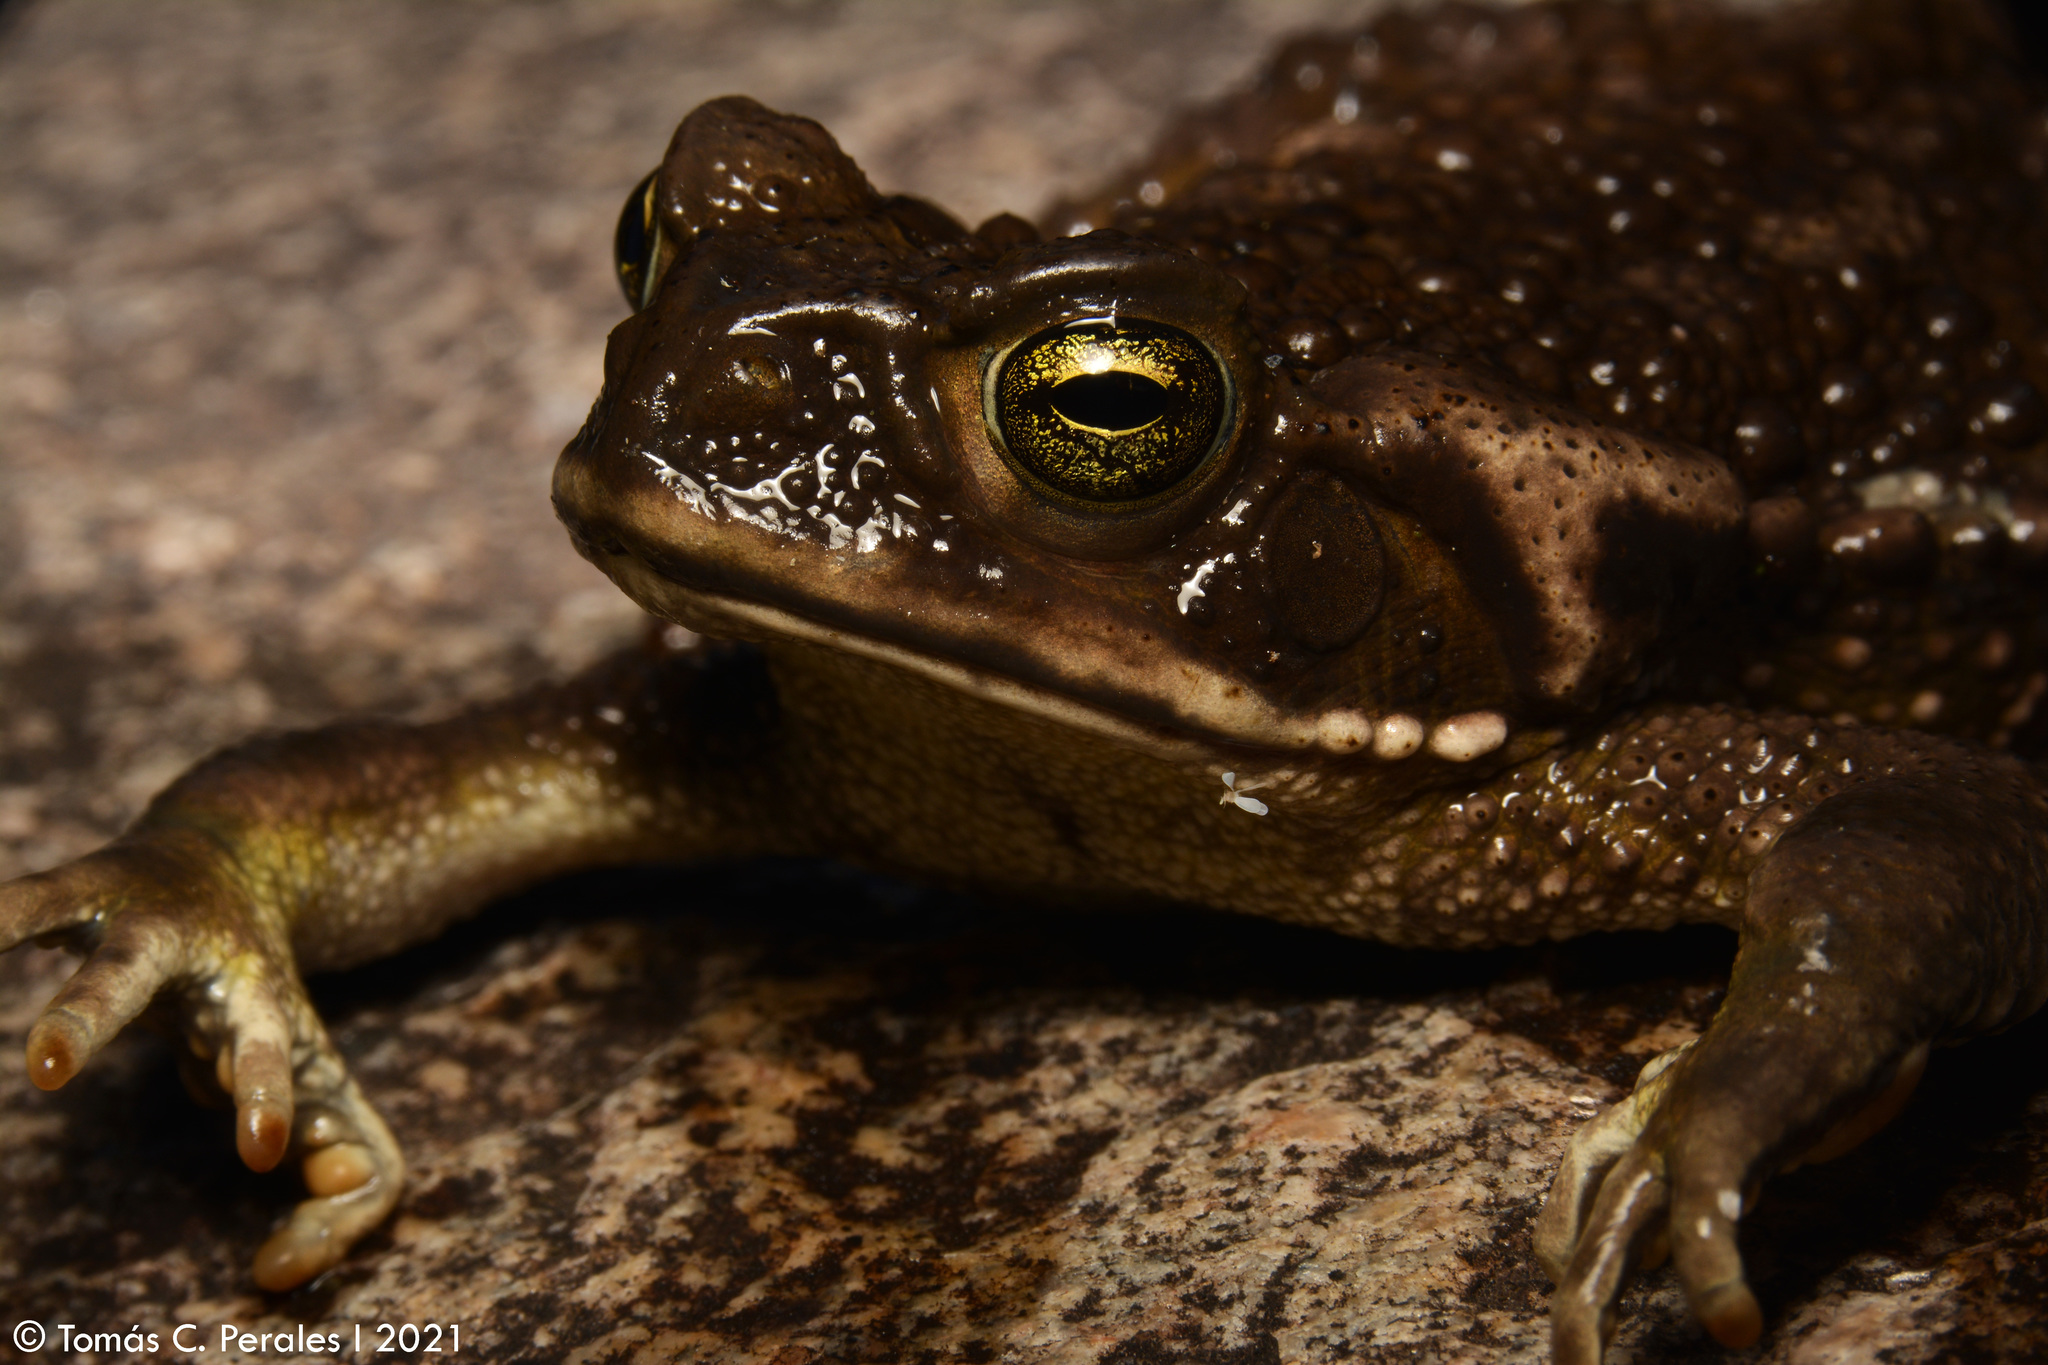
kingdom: Animalia
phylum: Chordata
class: Amphibia
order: Anura
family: Bufonidae
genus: Rhinella
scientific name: Rhinella arenarum
